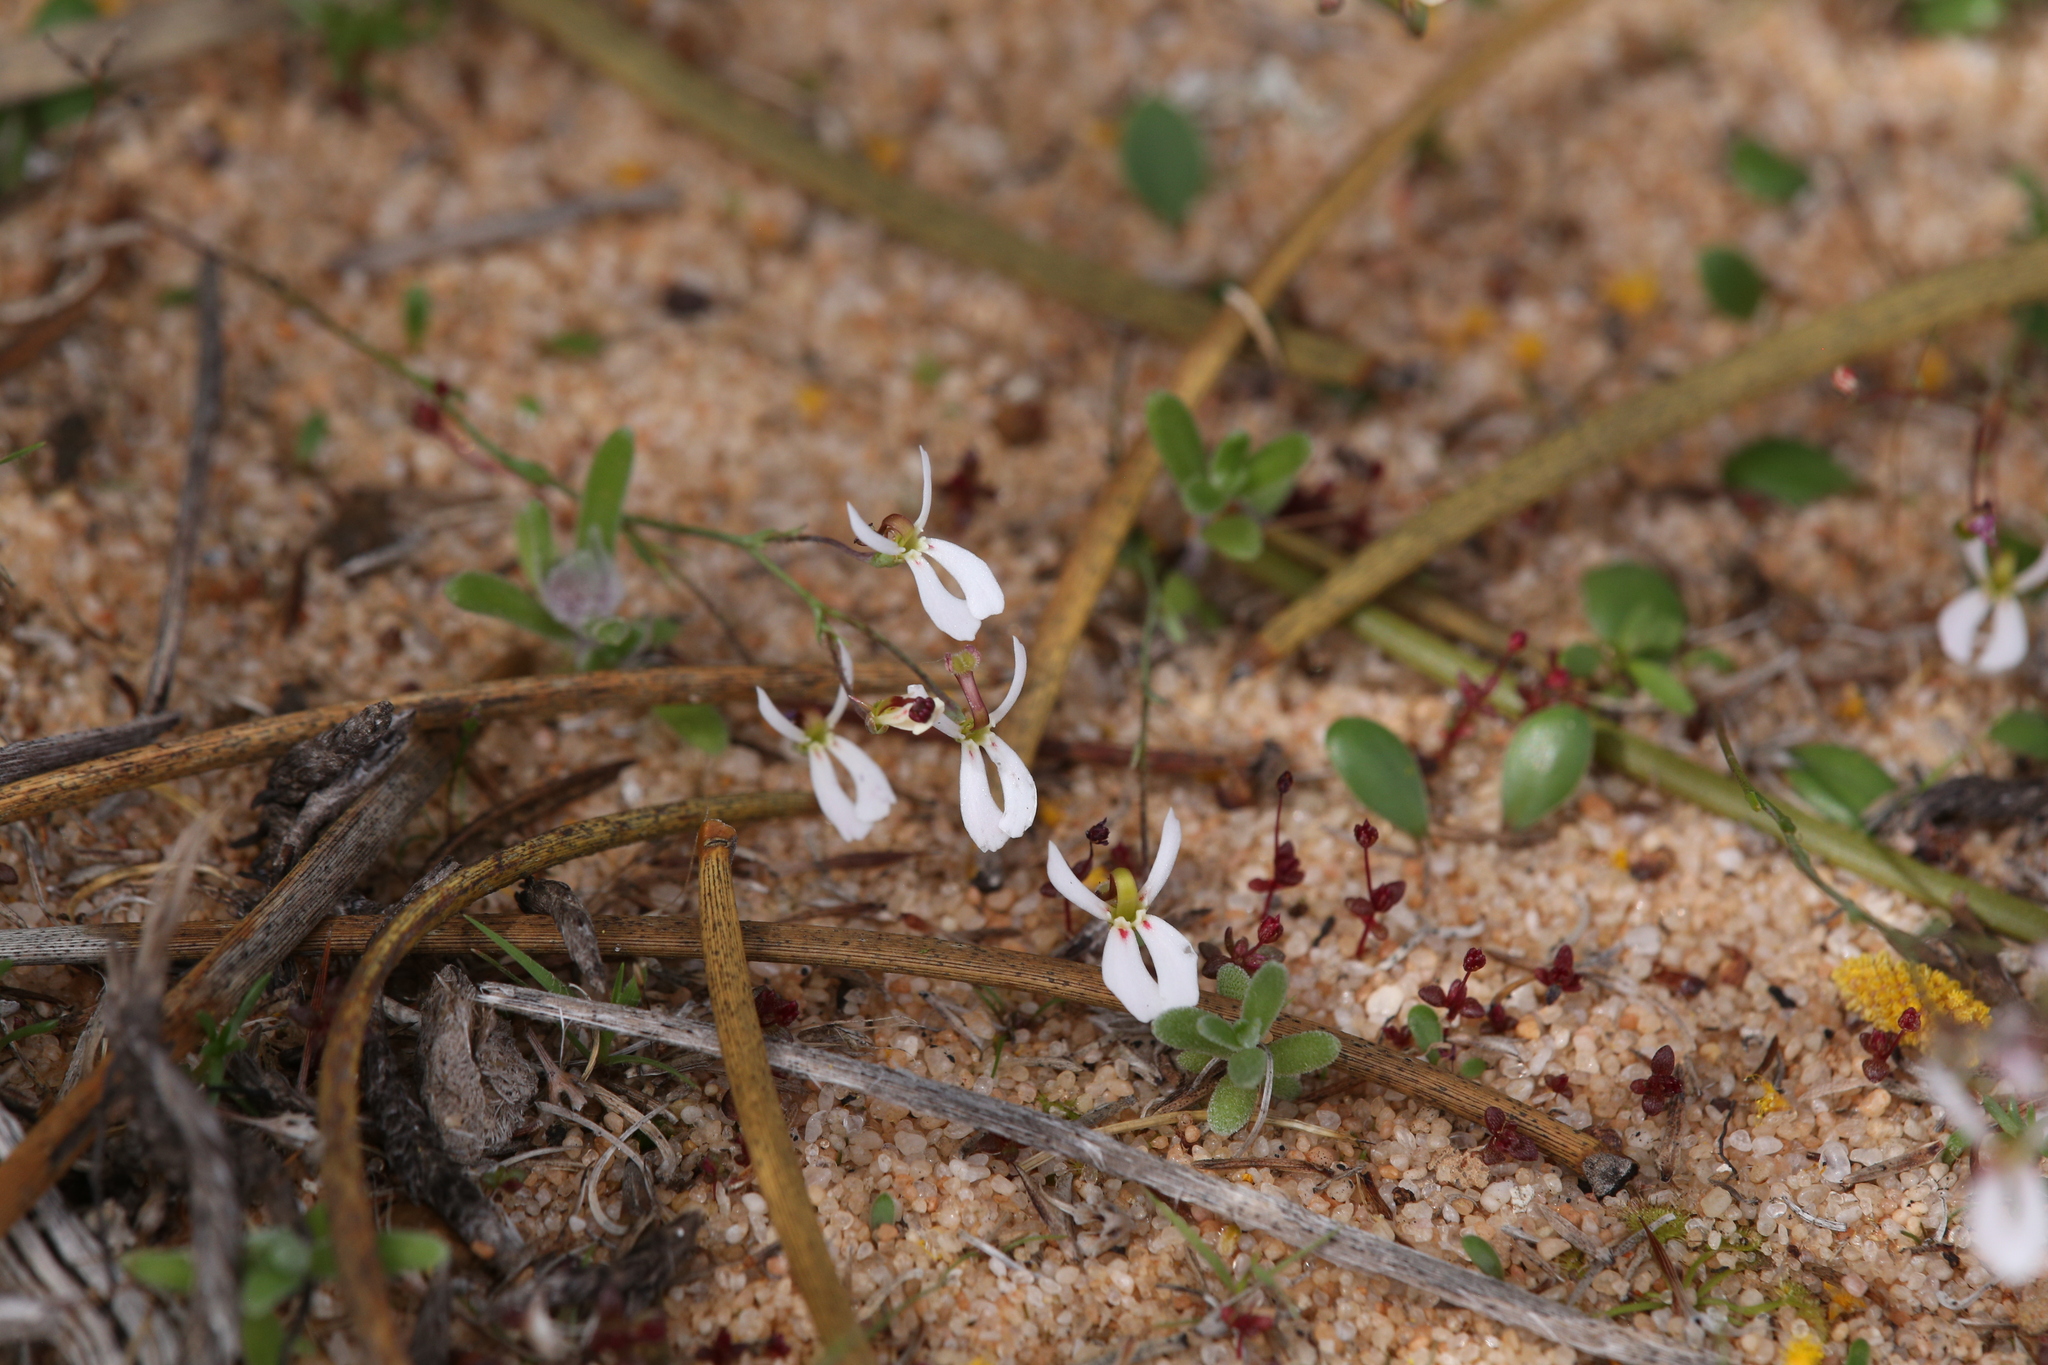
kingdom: Plantae
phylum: Tracheophyta
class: Magnoliopsida
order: Asterales
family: Stylidiaceae
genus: Stylidium
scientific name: Stylidium udusicola
